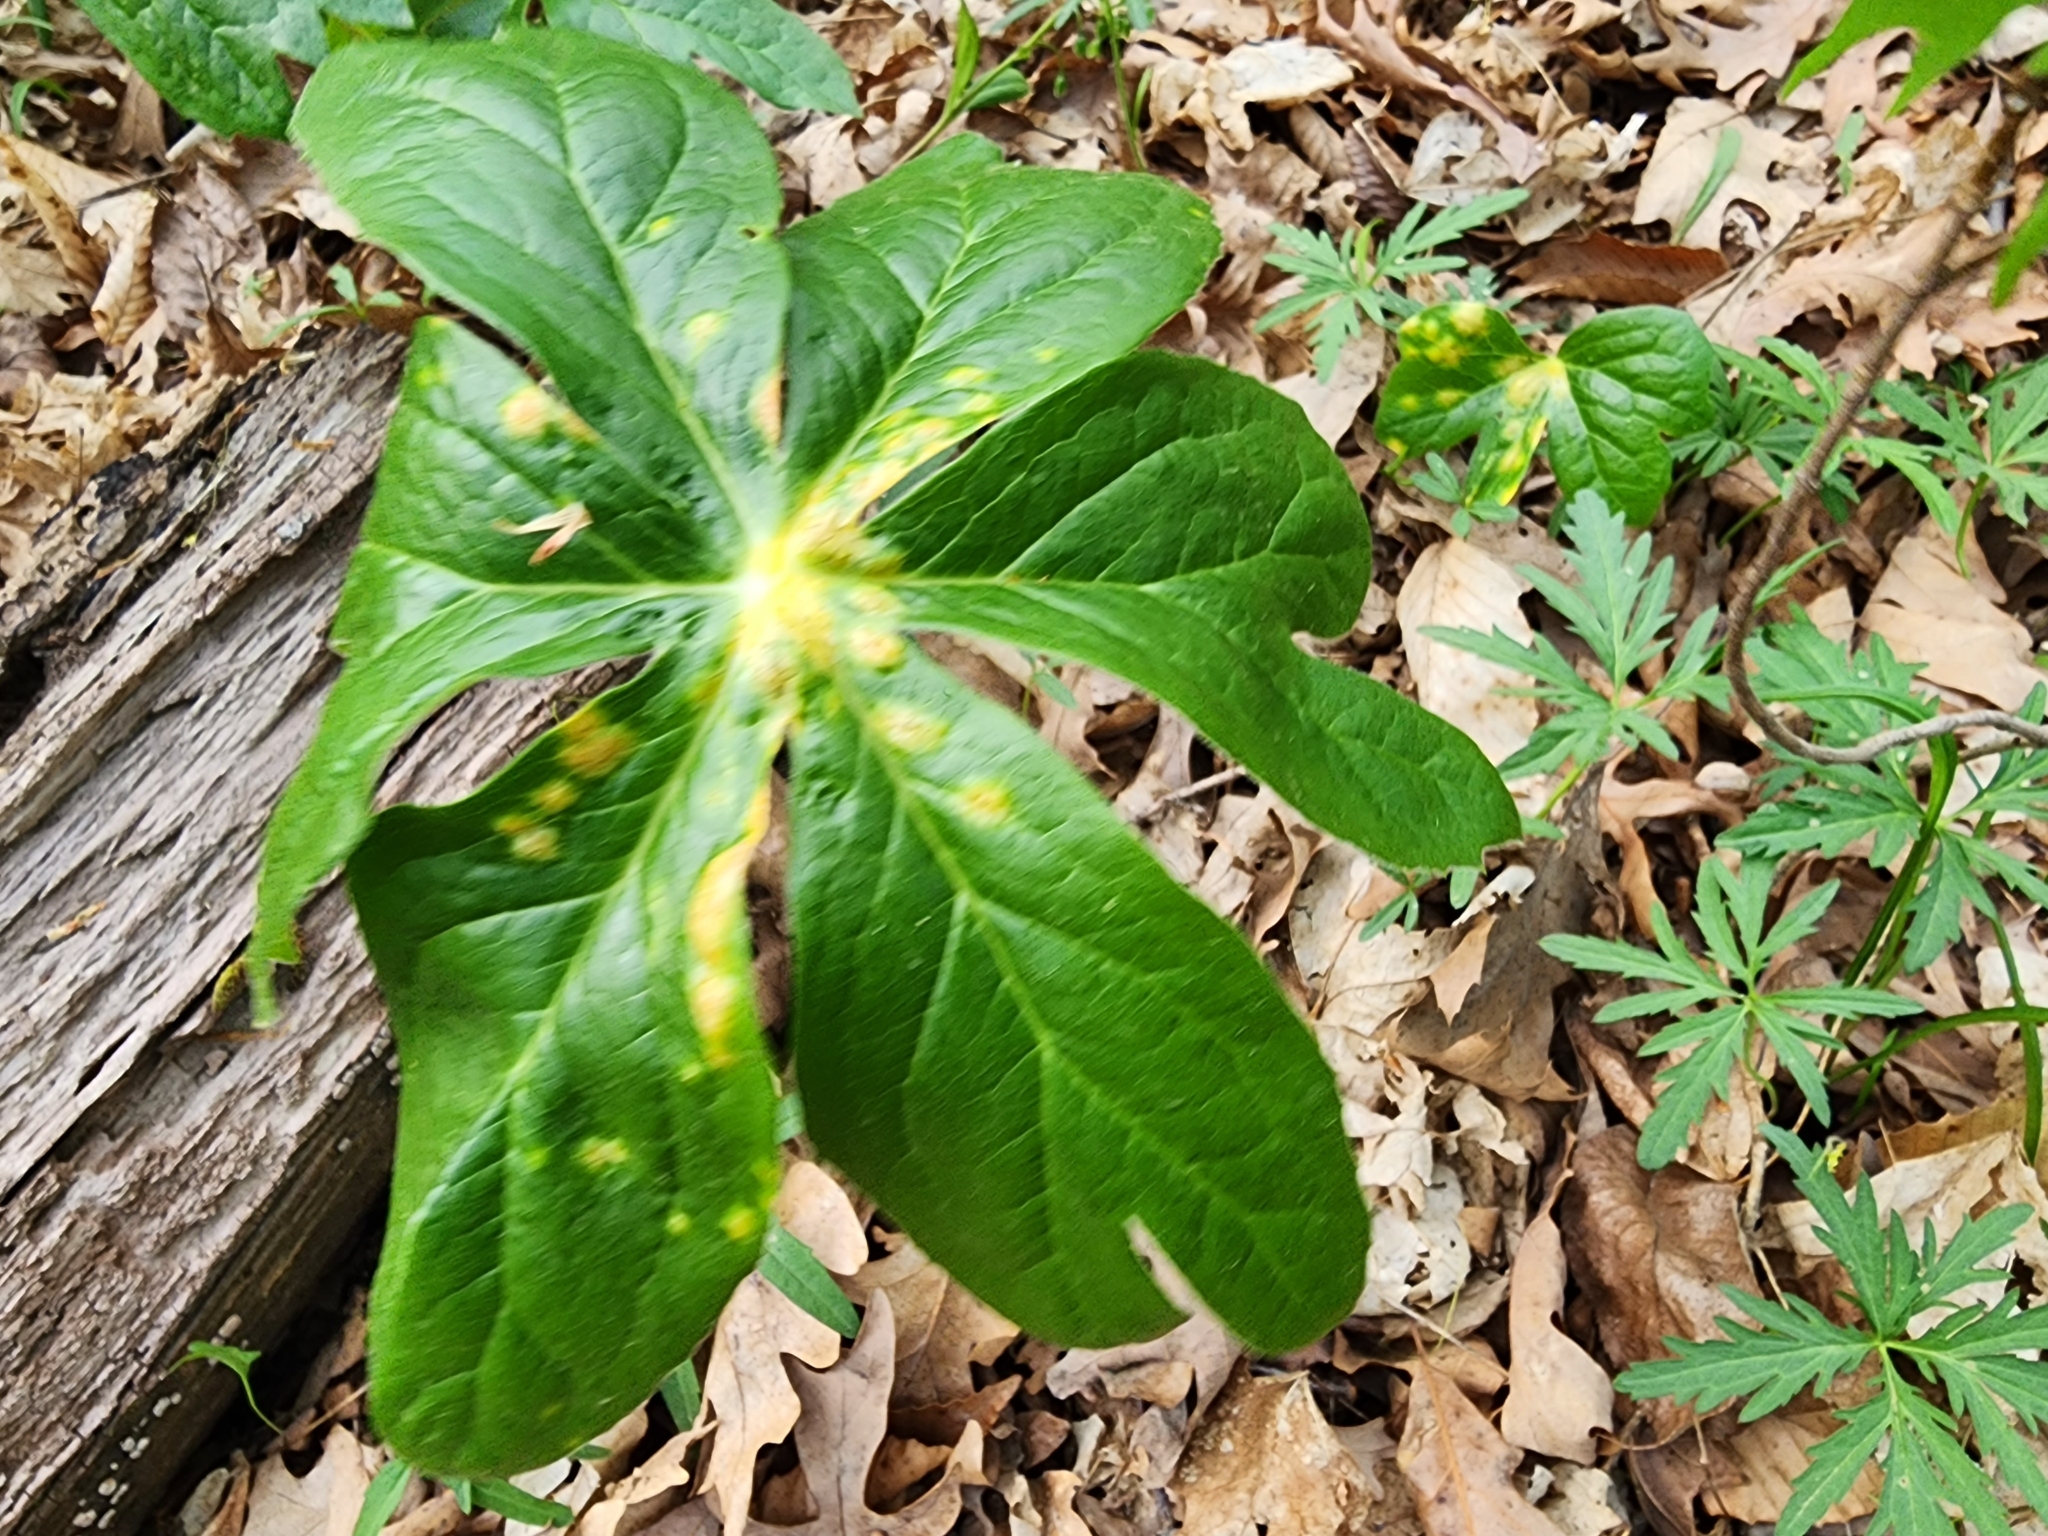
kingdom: Fungi
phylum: Basidiomycota
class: Pucciniomycetes
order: Pucciniales
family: Pucciniaceae
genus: Puccinia
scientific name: Puccinia podophylli
